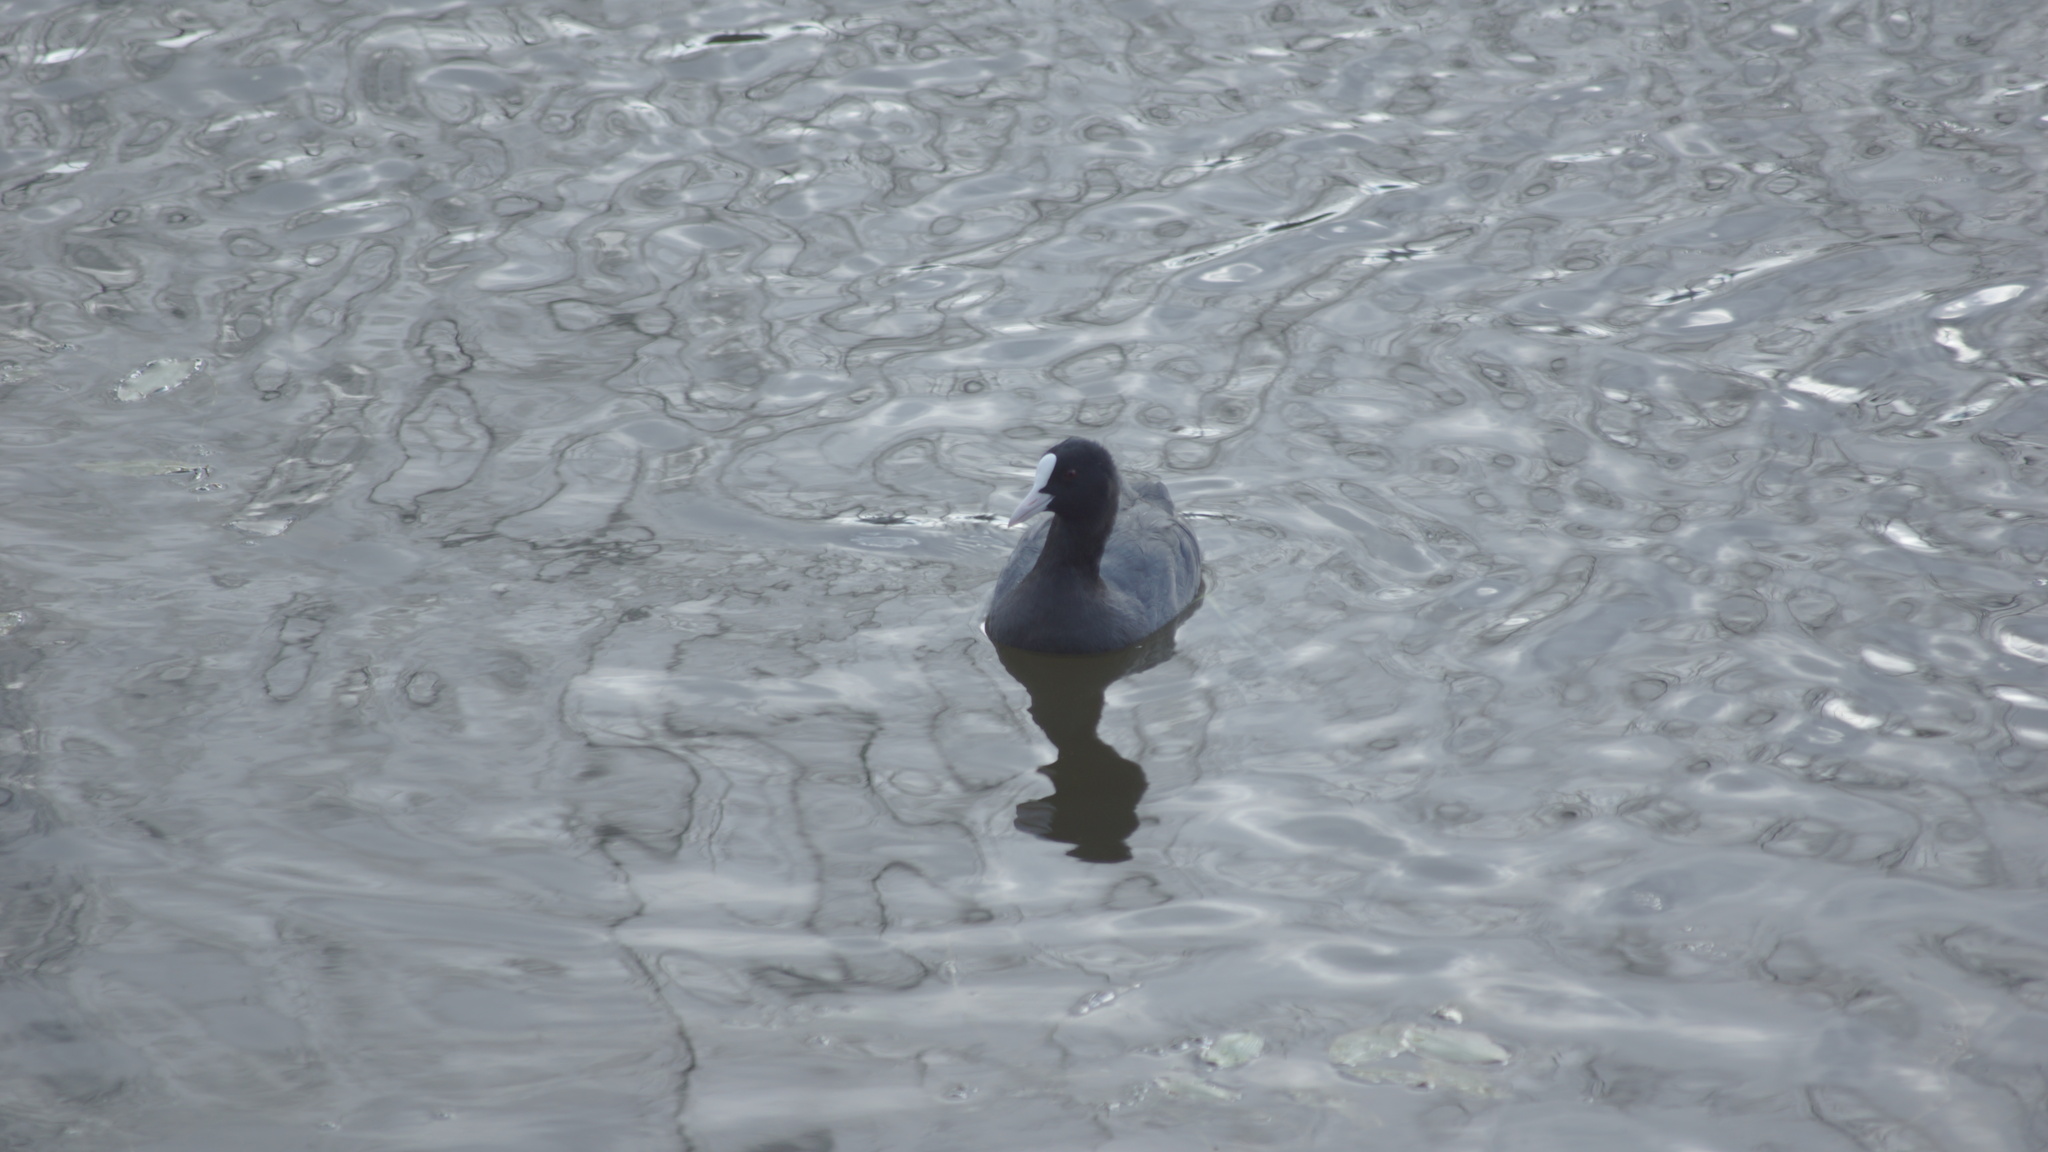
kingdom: Animalia
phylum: Chordata
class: Aves
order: Gruiformes
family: Rallidae
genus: Fulica
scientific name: Fulica atra
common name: Eurasian coot
